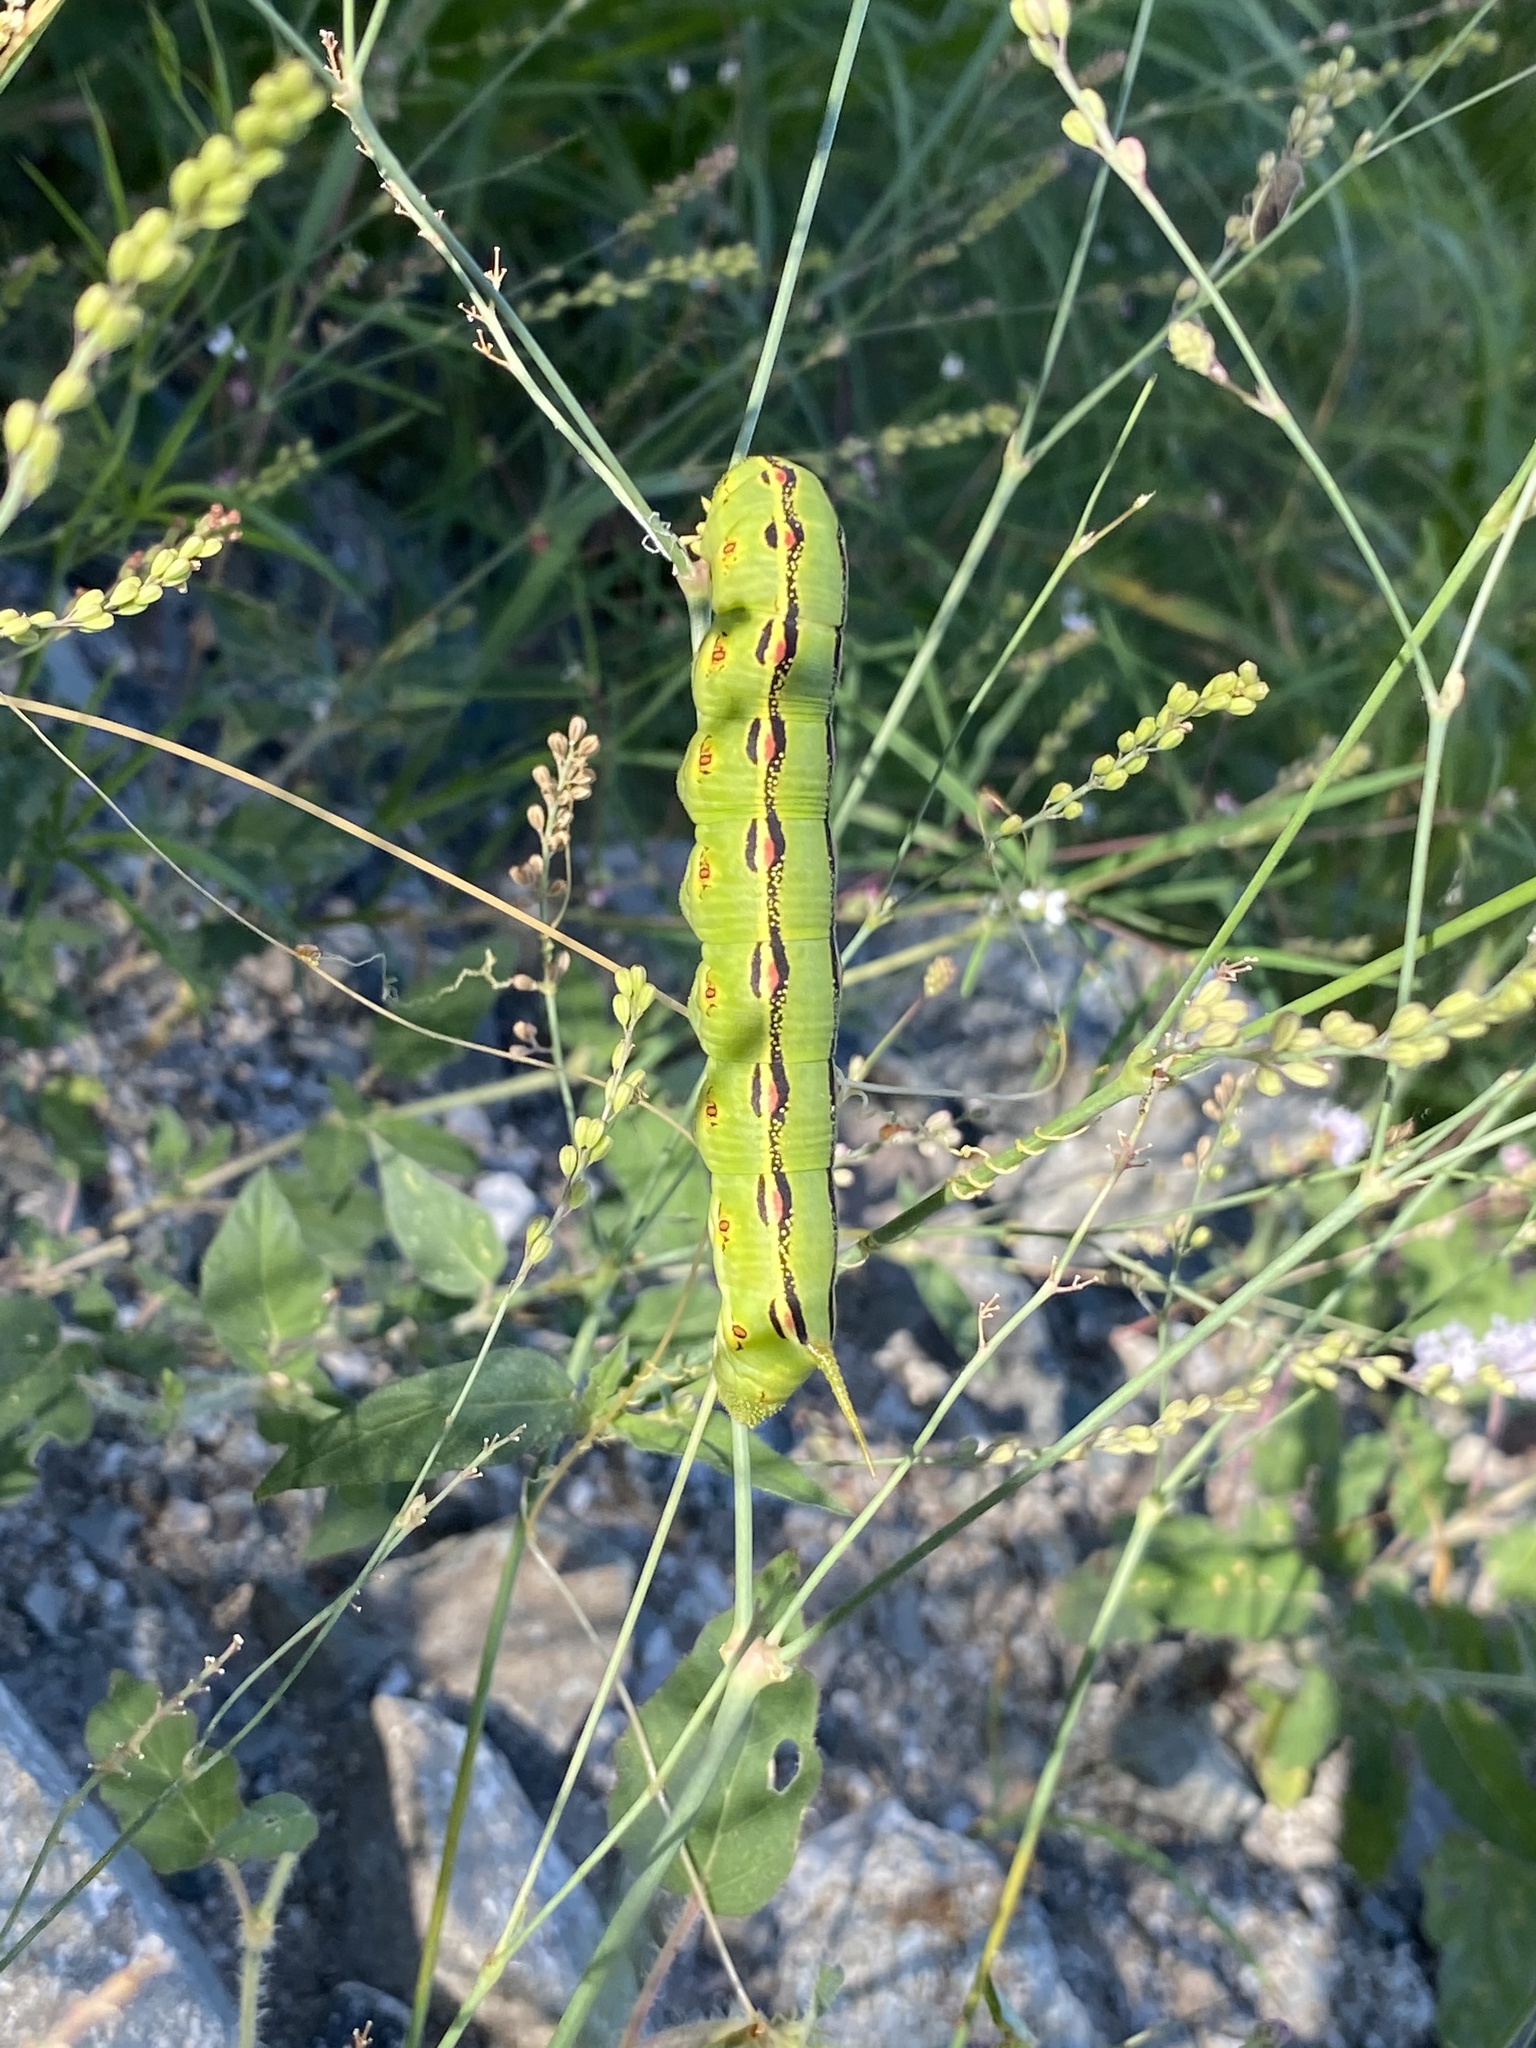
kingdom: Animalia
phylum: Arthropoda
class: Insecta
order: Lepidoptera
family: Sphingidae
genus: Hyles
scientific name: Hyles lineata
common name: White-lined sphinx
